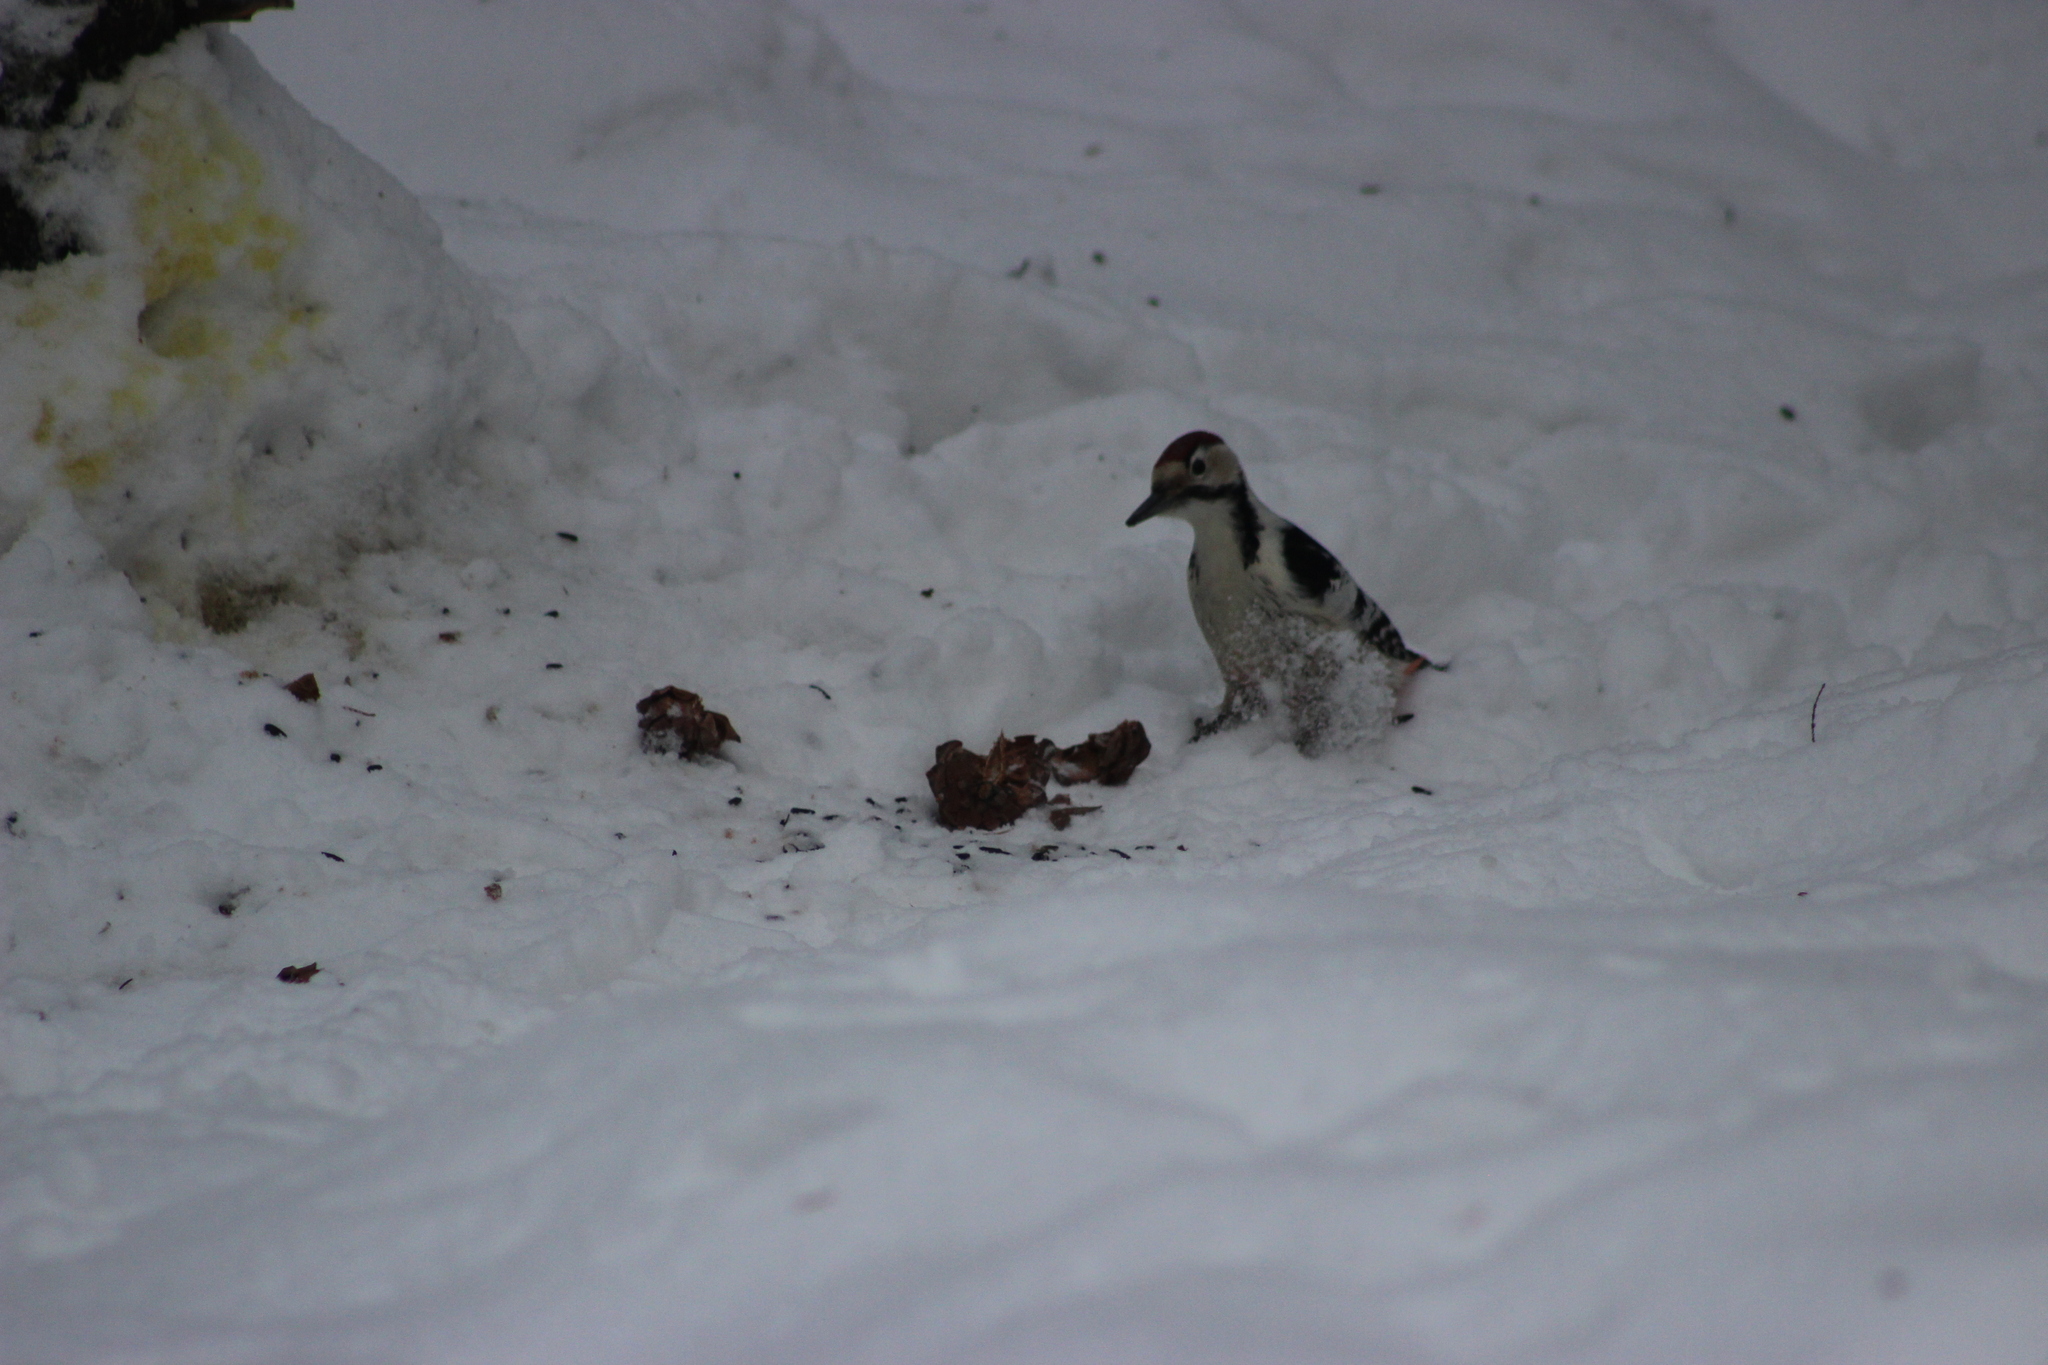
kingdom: Animalia
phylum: Chordata
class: Aves
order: Piciformes
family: Picidae
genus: Dendrocopos
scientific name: Dendrocopos leucotos
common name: White-backed woodpecker
